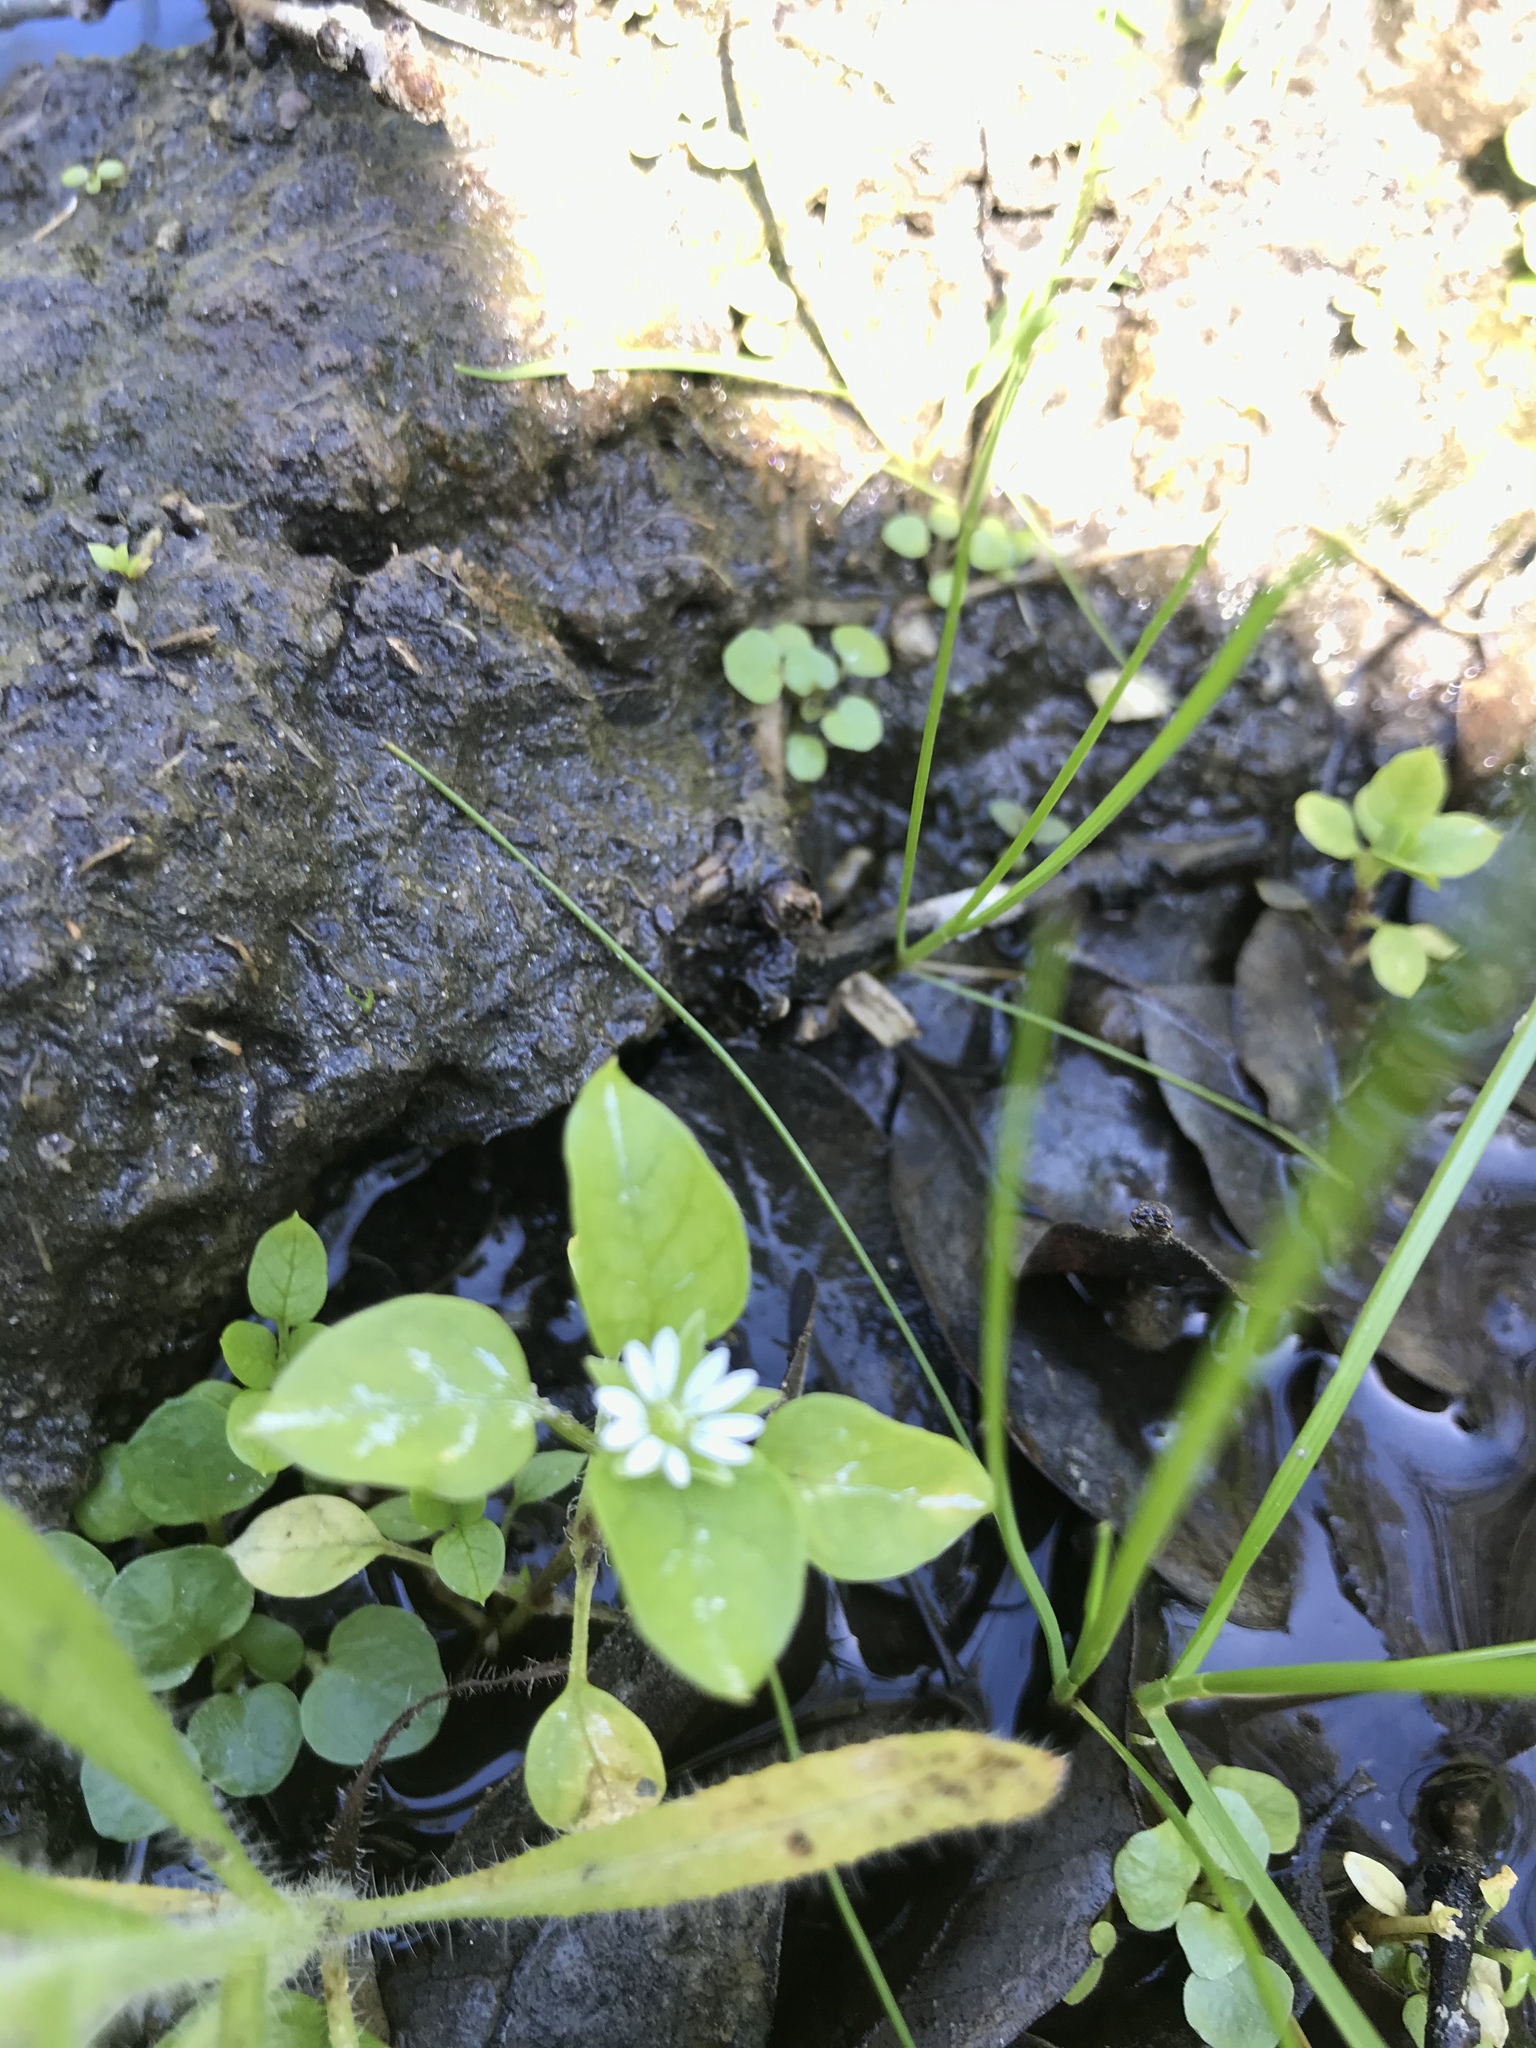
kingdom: Plantae
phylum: Tracheophyta
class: Magnoliopsida
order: Caryophyllales
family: Caryophyllaceae
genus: Stellaria
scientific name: Stellaria media
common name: Common chickweed
